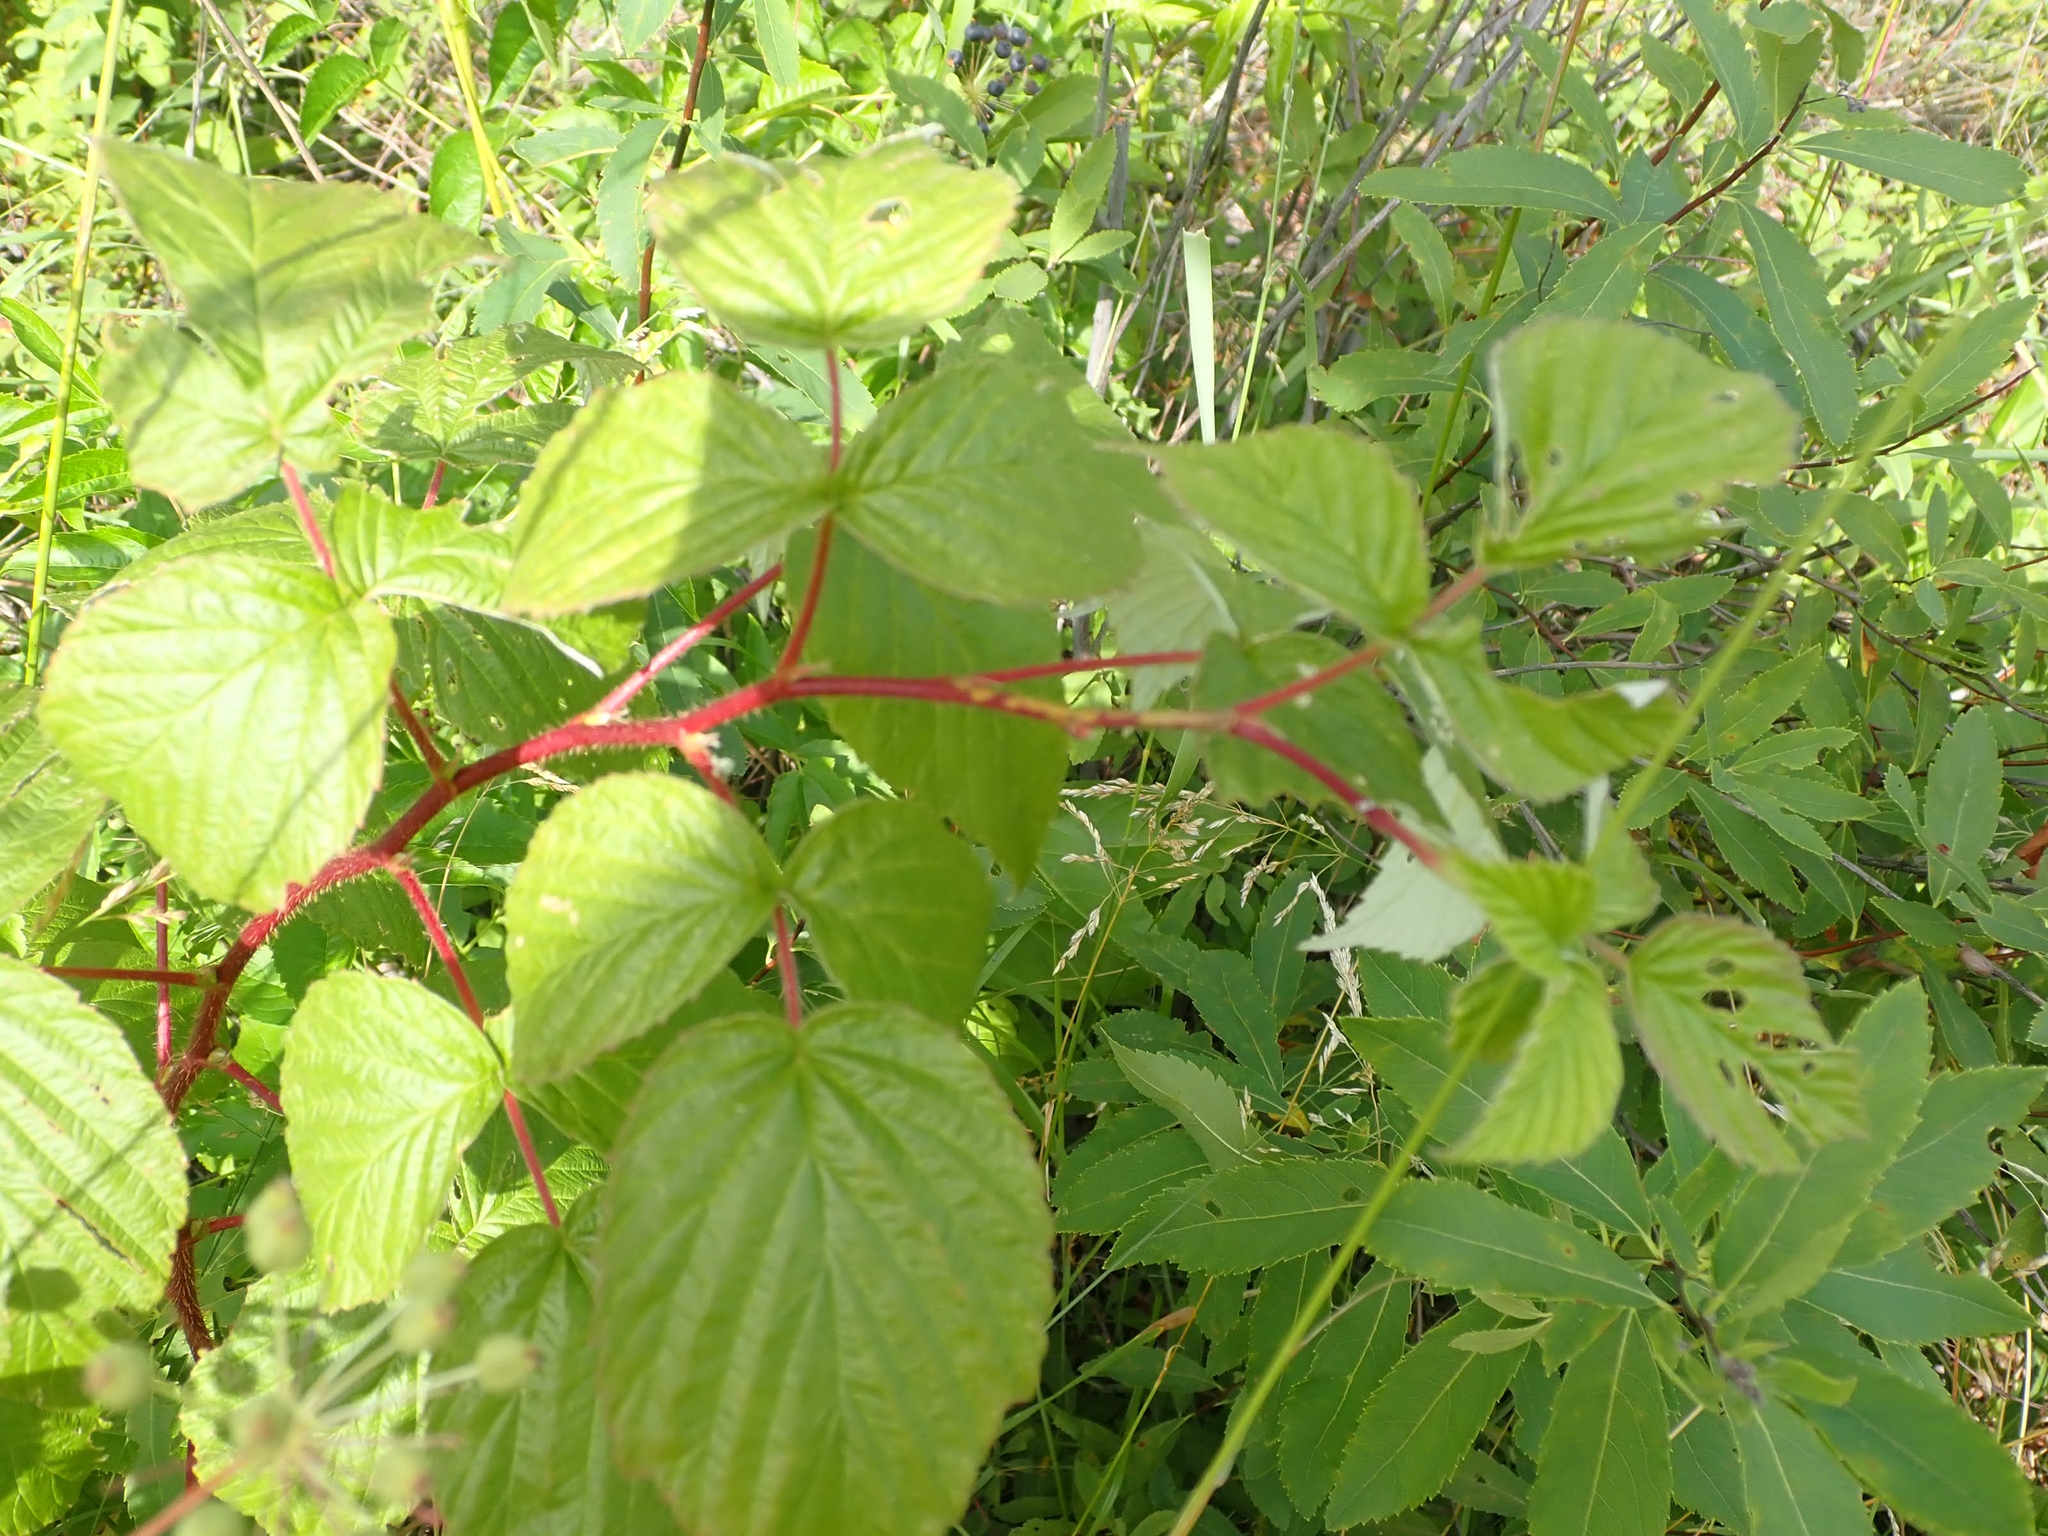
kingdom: Plantae
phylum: Tracheophyta
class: Magnoliopsida
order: Rosales
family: Rosaceae
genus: Rubus
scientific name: Rubus idaeus
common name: Raspberry
